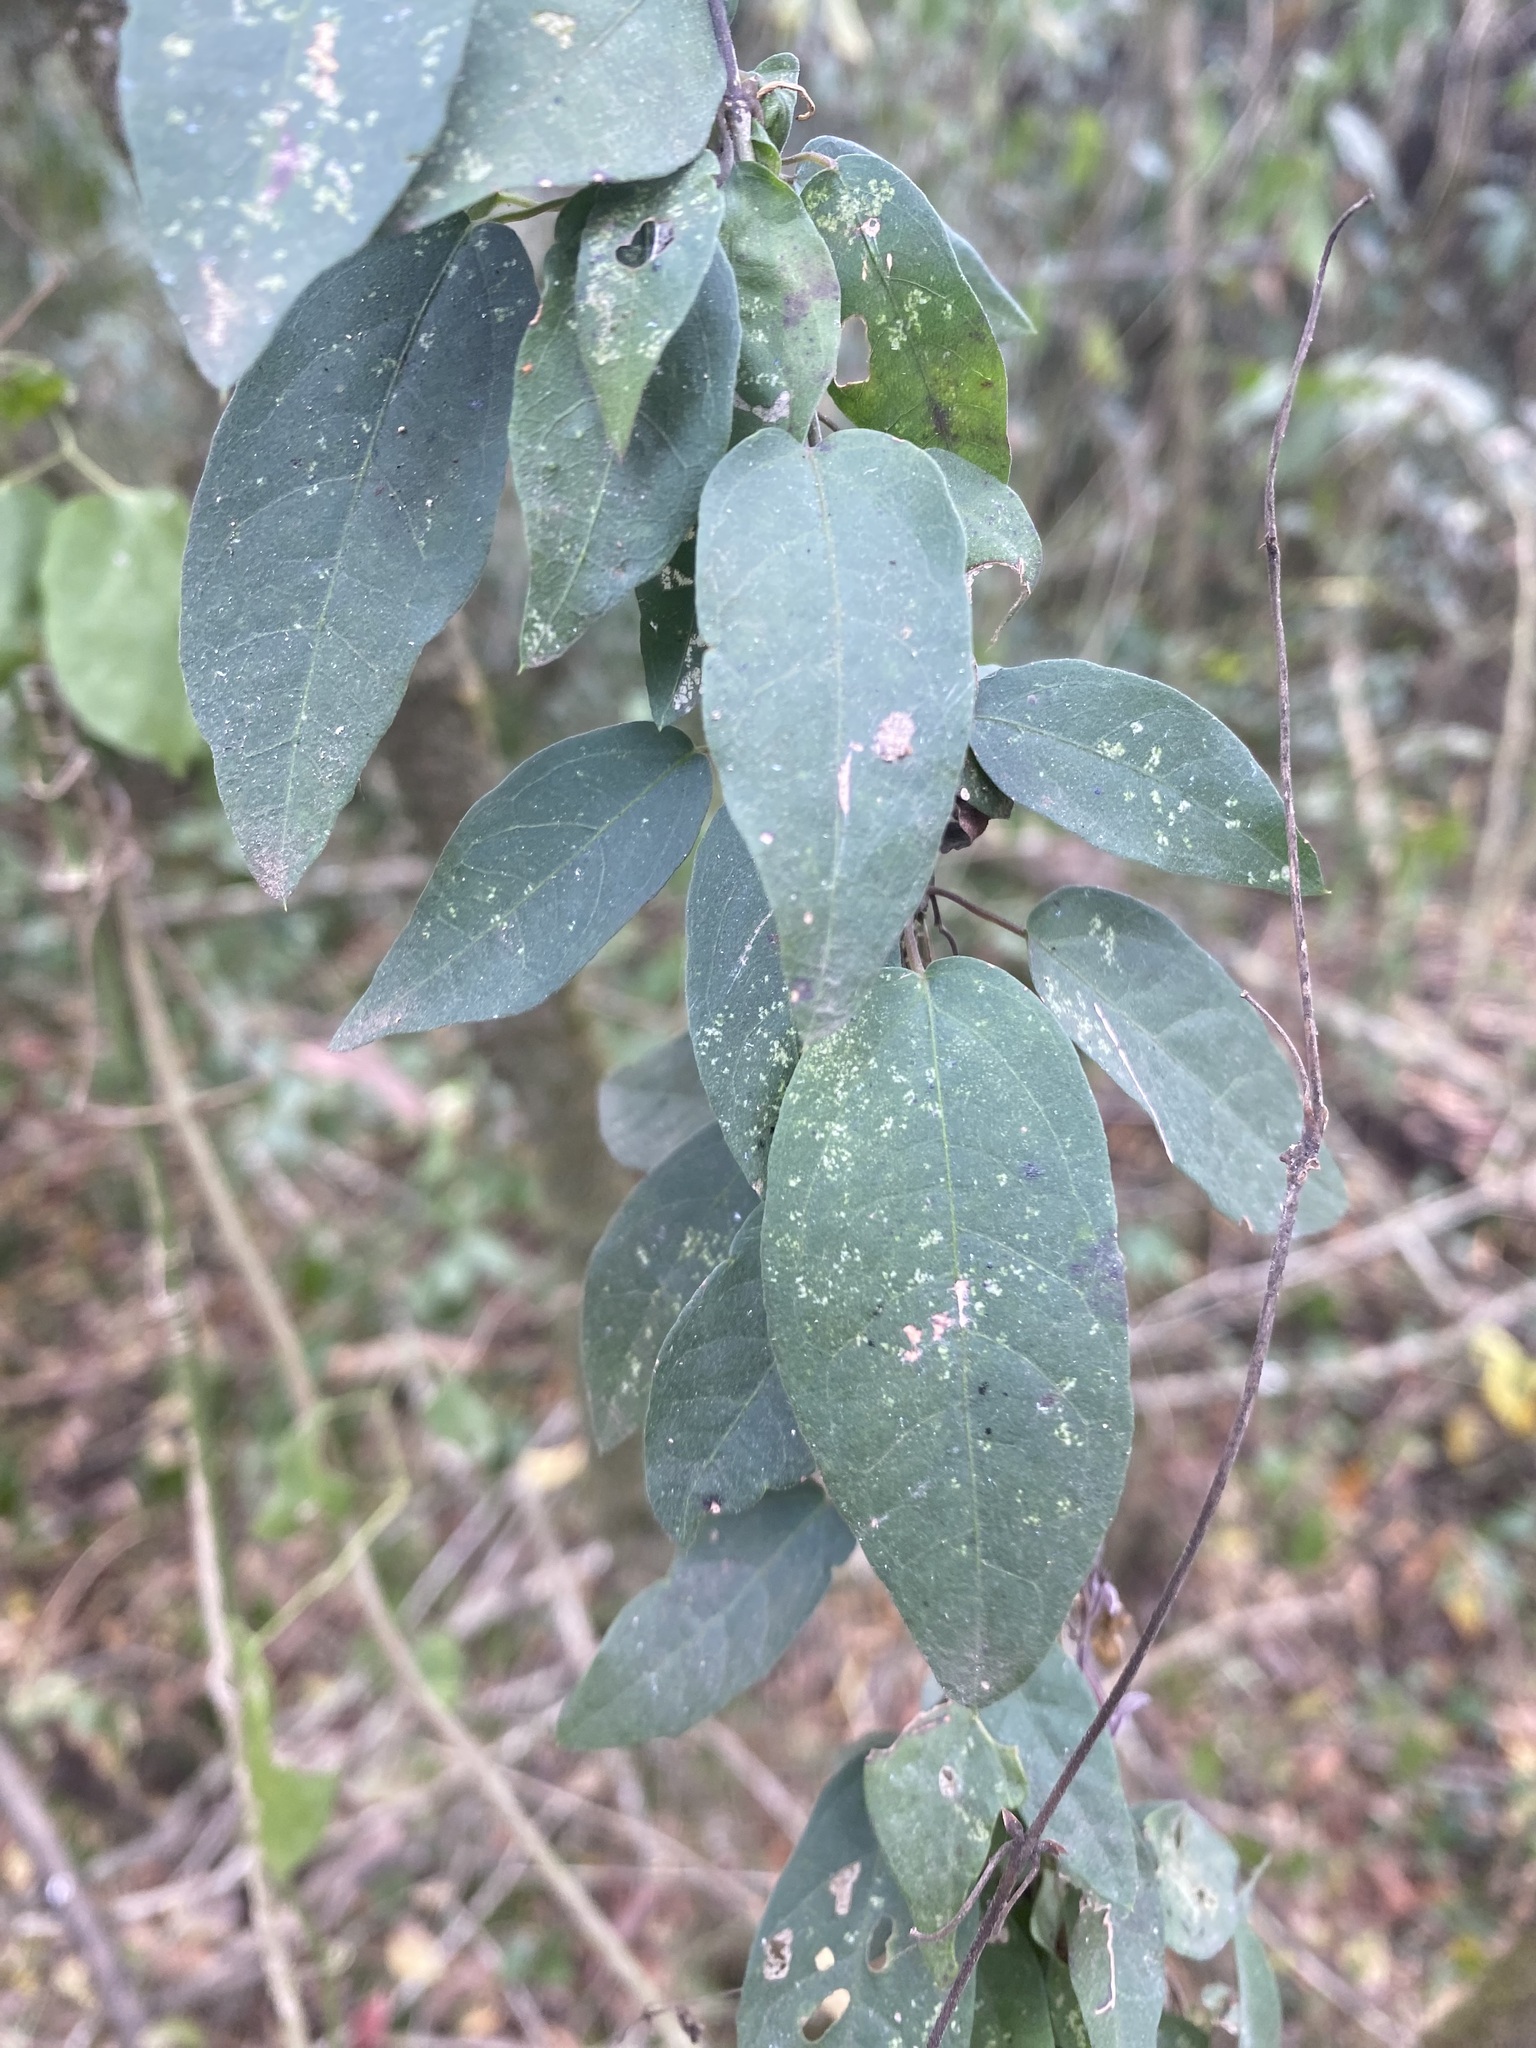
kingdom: Plantae
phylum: Tracheophyta
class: Magnoliopsida
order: Lamiales
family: Bignoniaceae
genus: Dolichandra
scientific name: Dolichandra unguis-cati
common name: Catclaw vine
